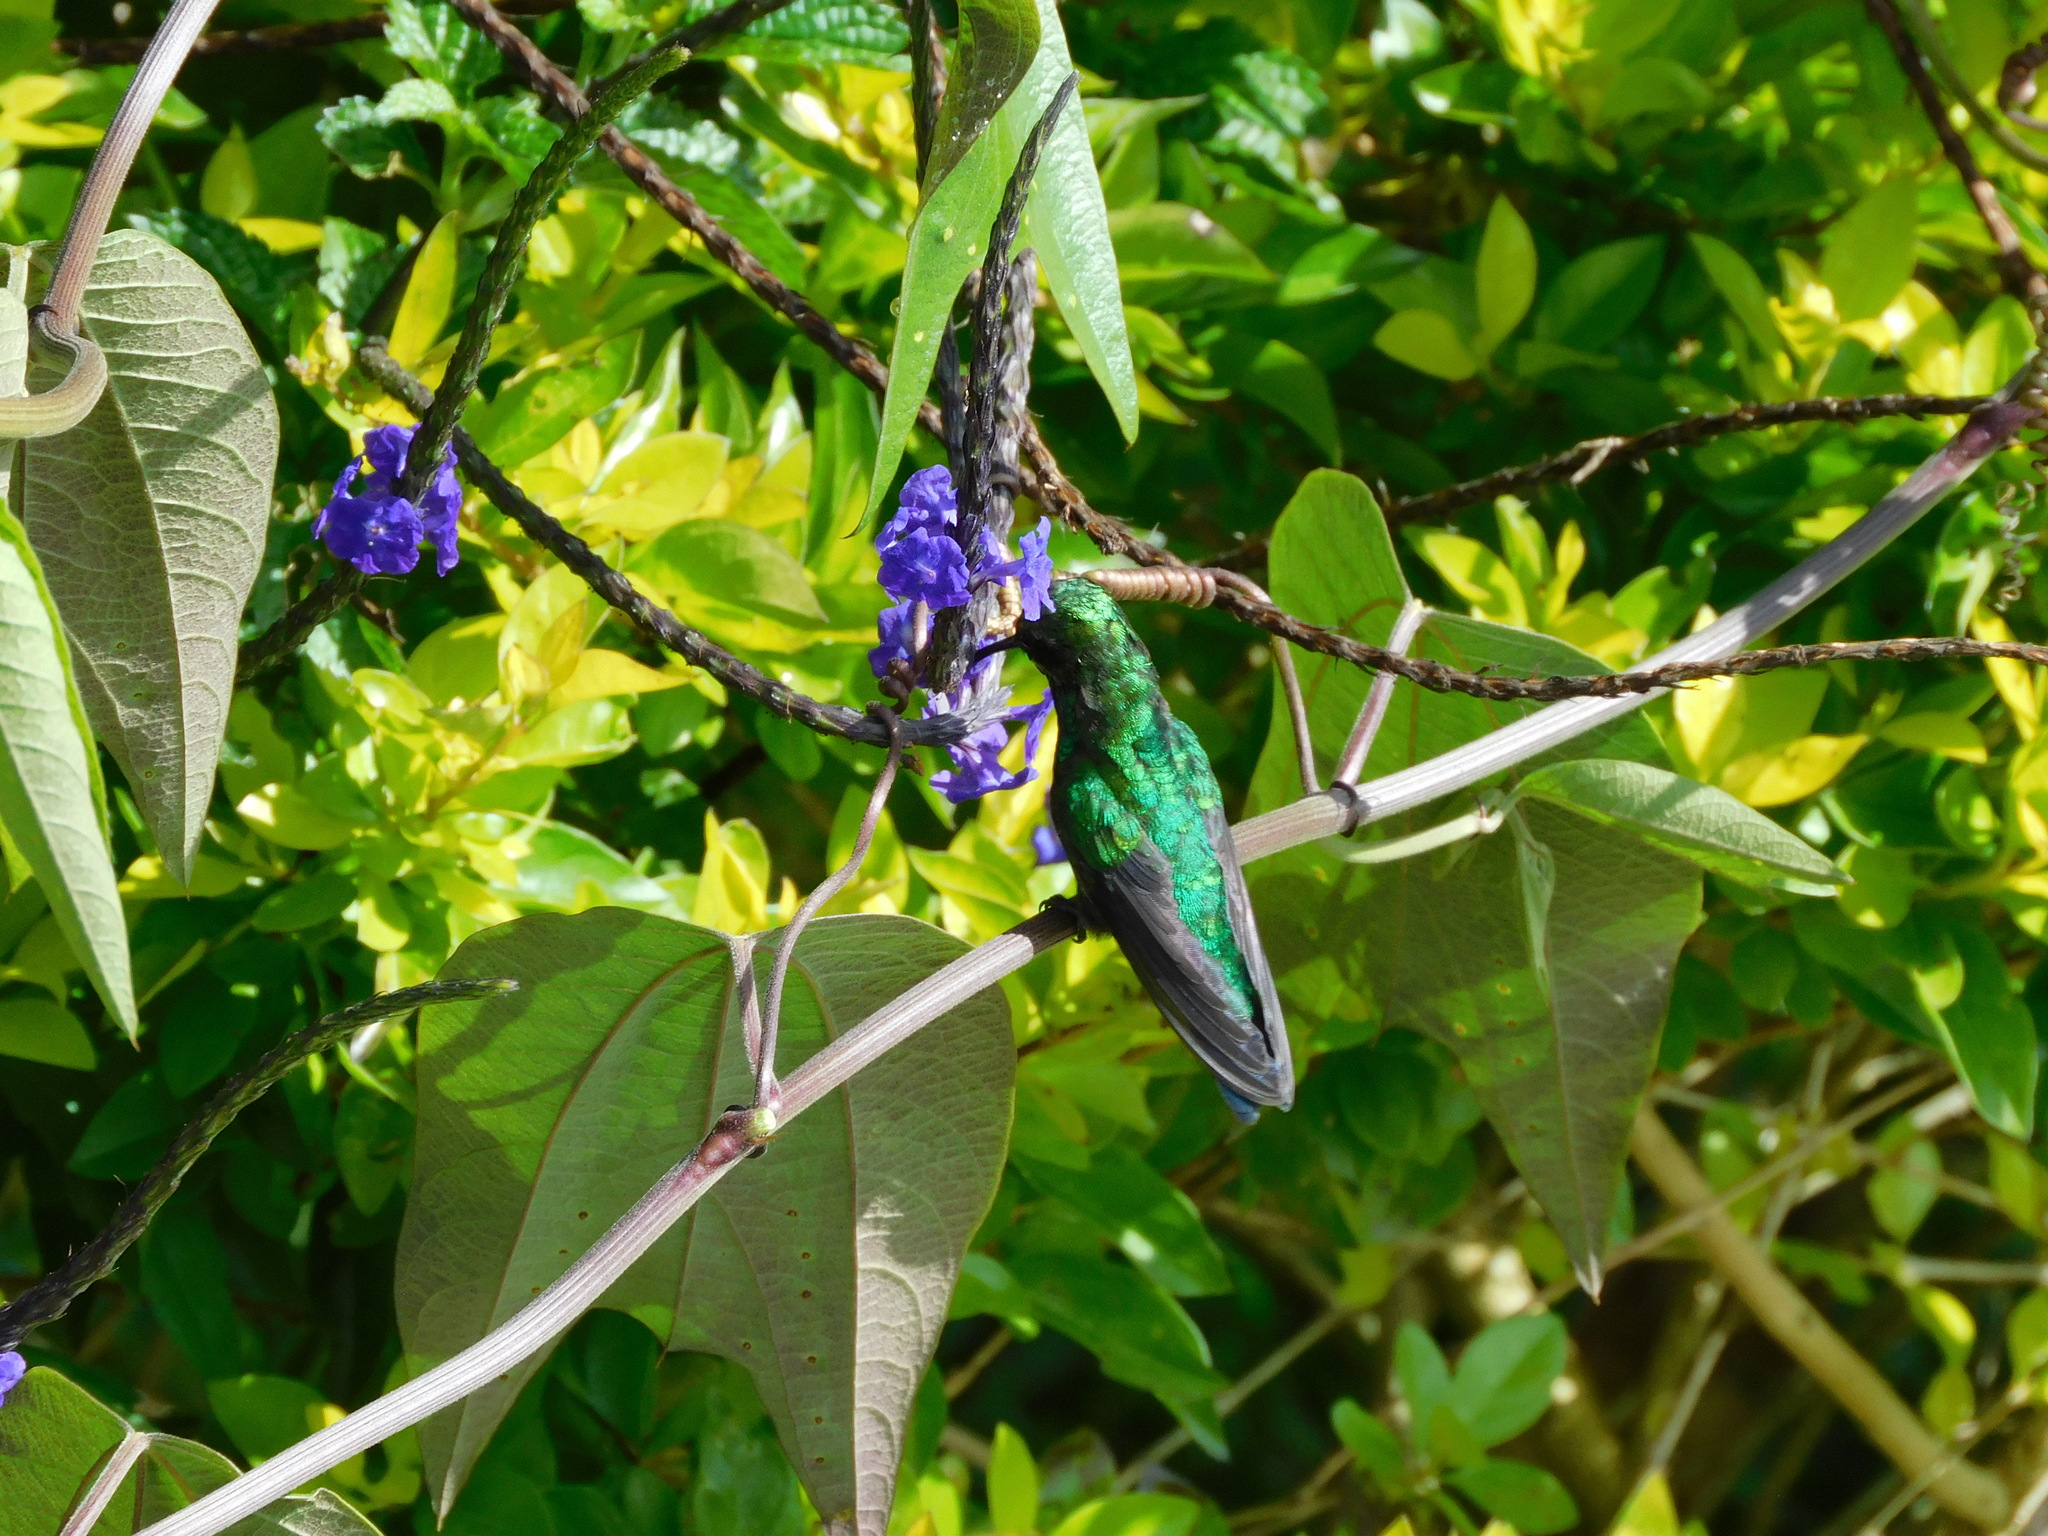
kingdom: Animalia
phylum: Chordata
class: Aves
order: Apodiformes
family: Trochilidae
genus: Saucerottia
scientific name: Saucerottia saucerottei
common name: Steely-vented hummingbird
